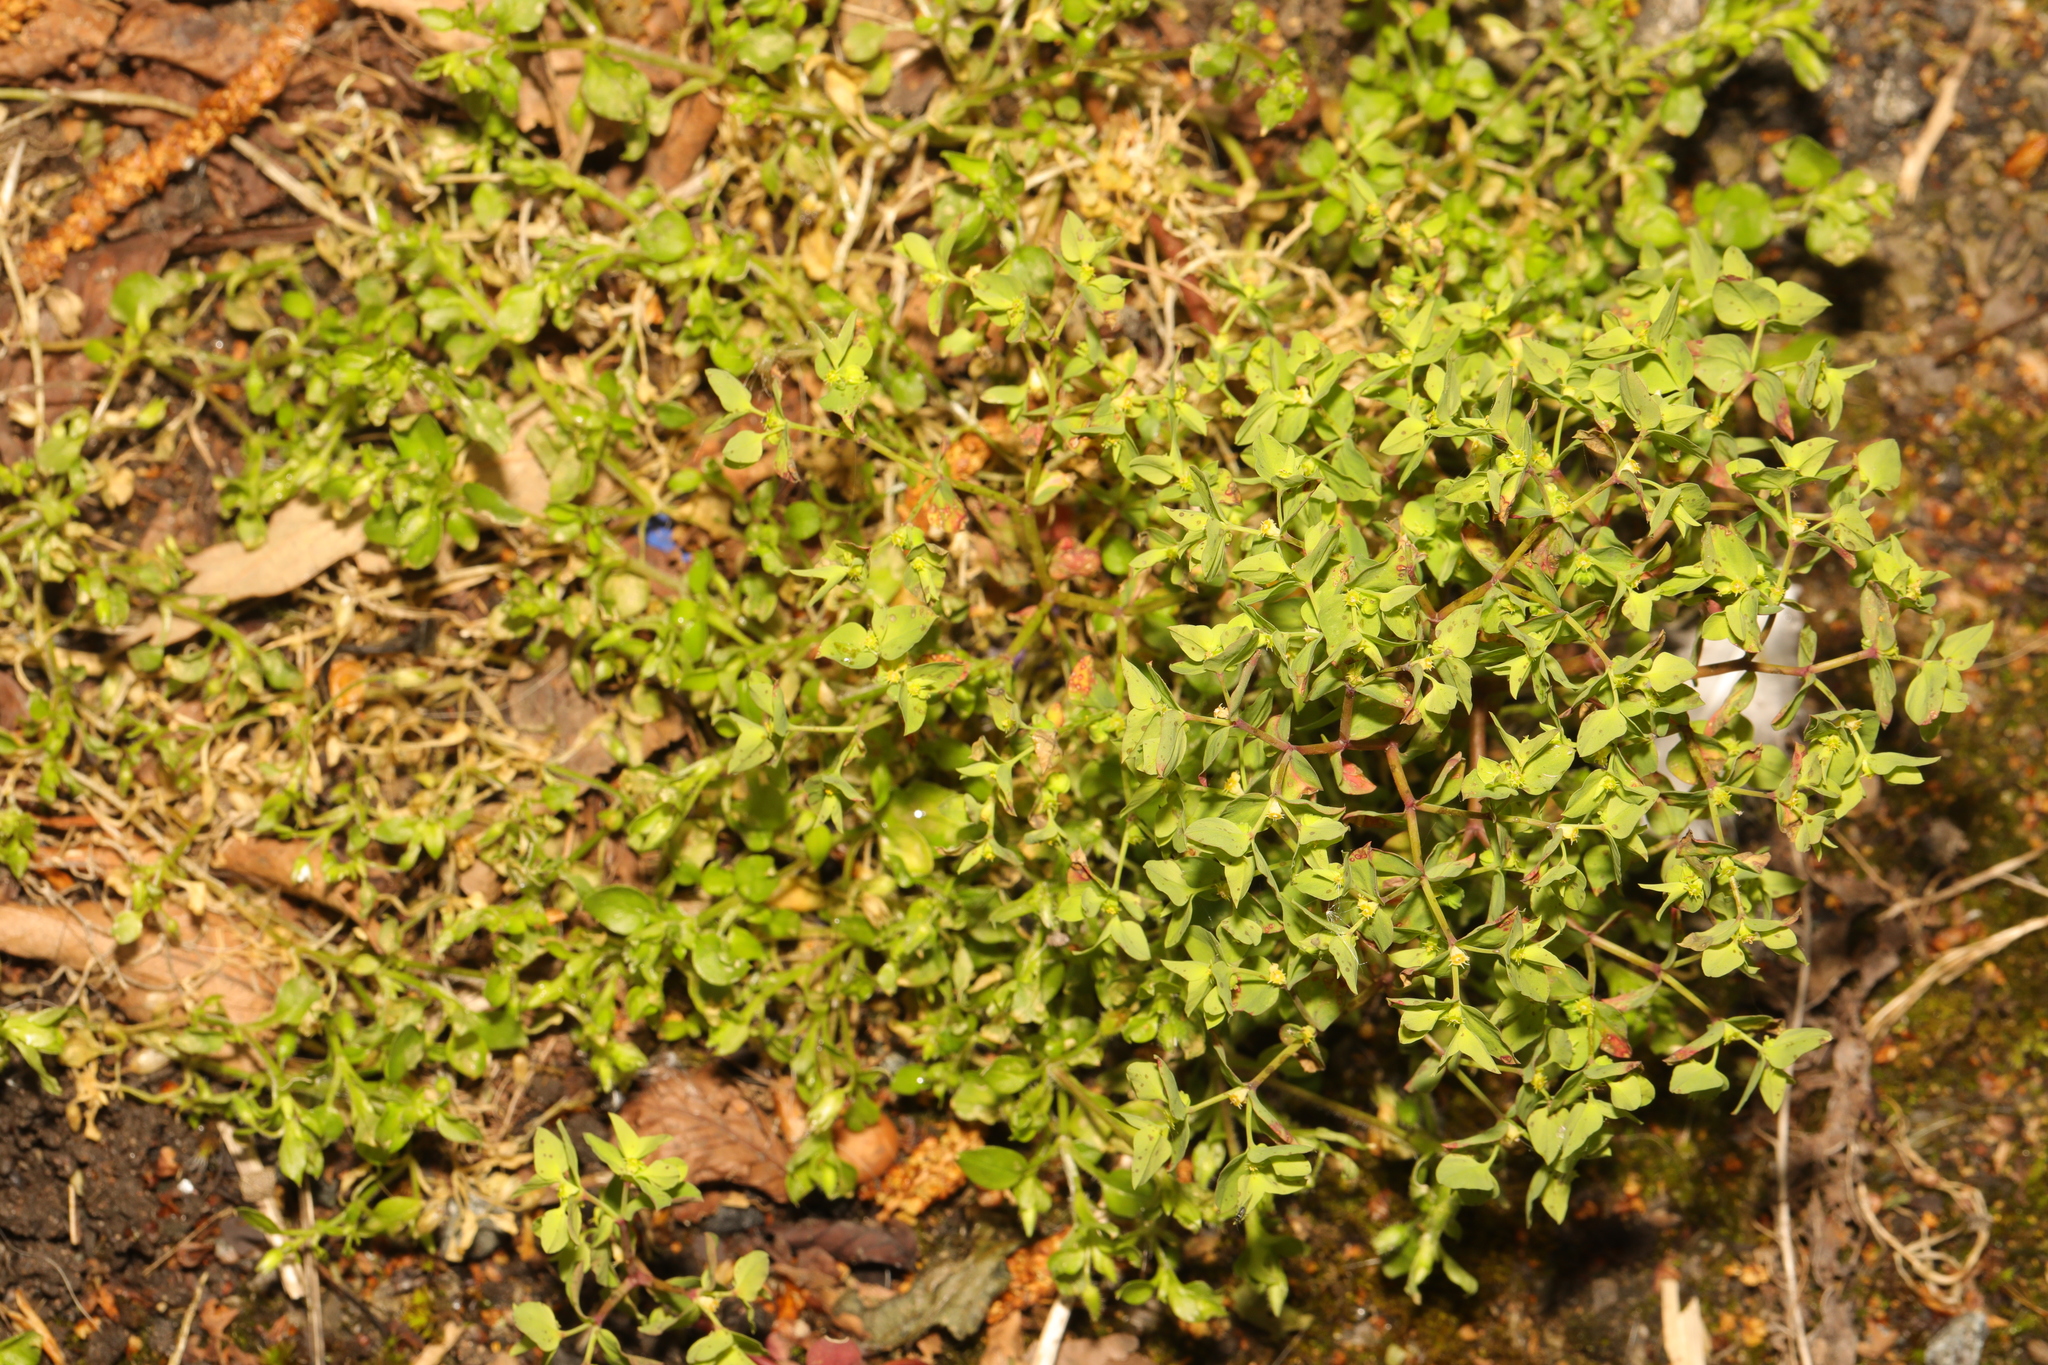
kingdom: Plantae
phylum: Tracheophyta
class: Magnoliopsida
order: Malpighiales
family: Euphorbiaceae
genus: Euphorbia
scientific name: Euphorbia peplus
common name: Petty spurge
